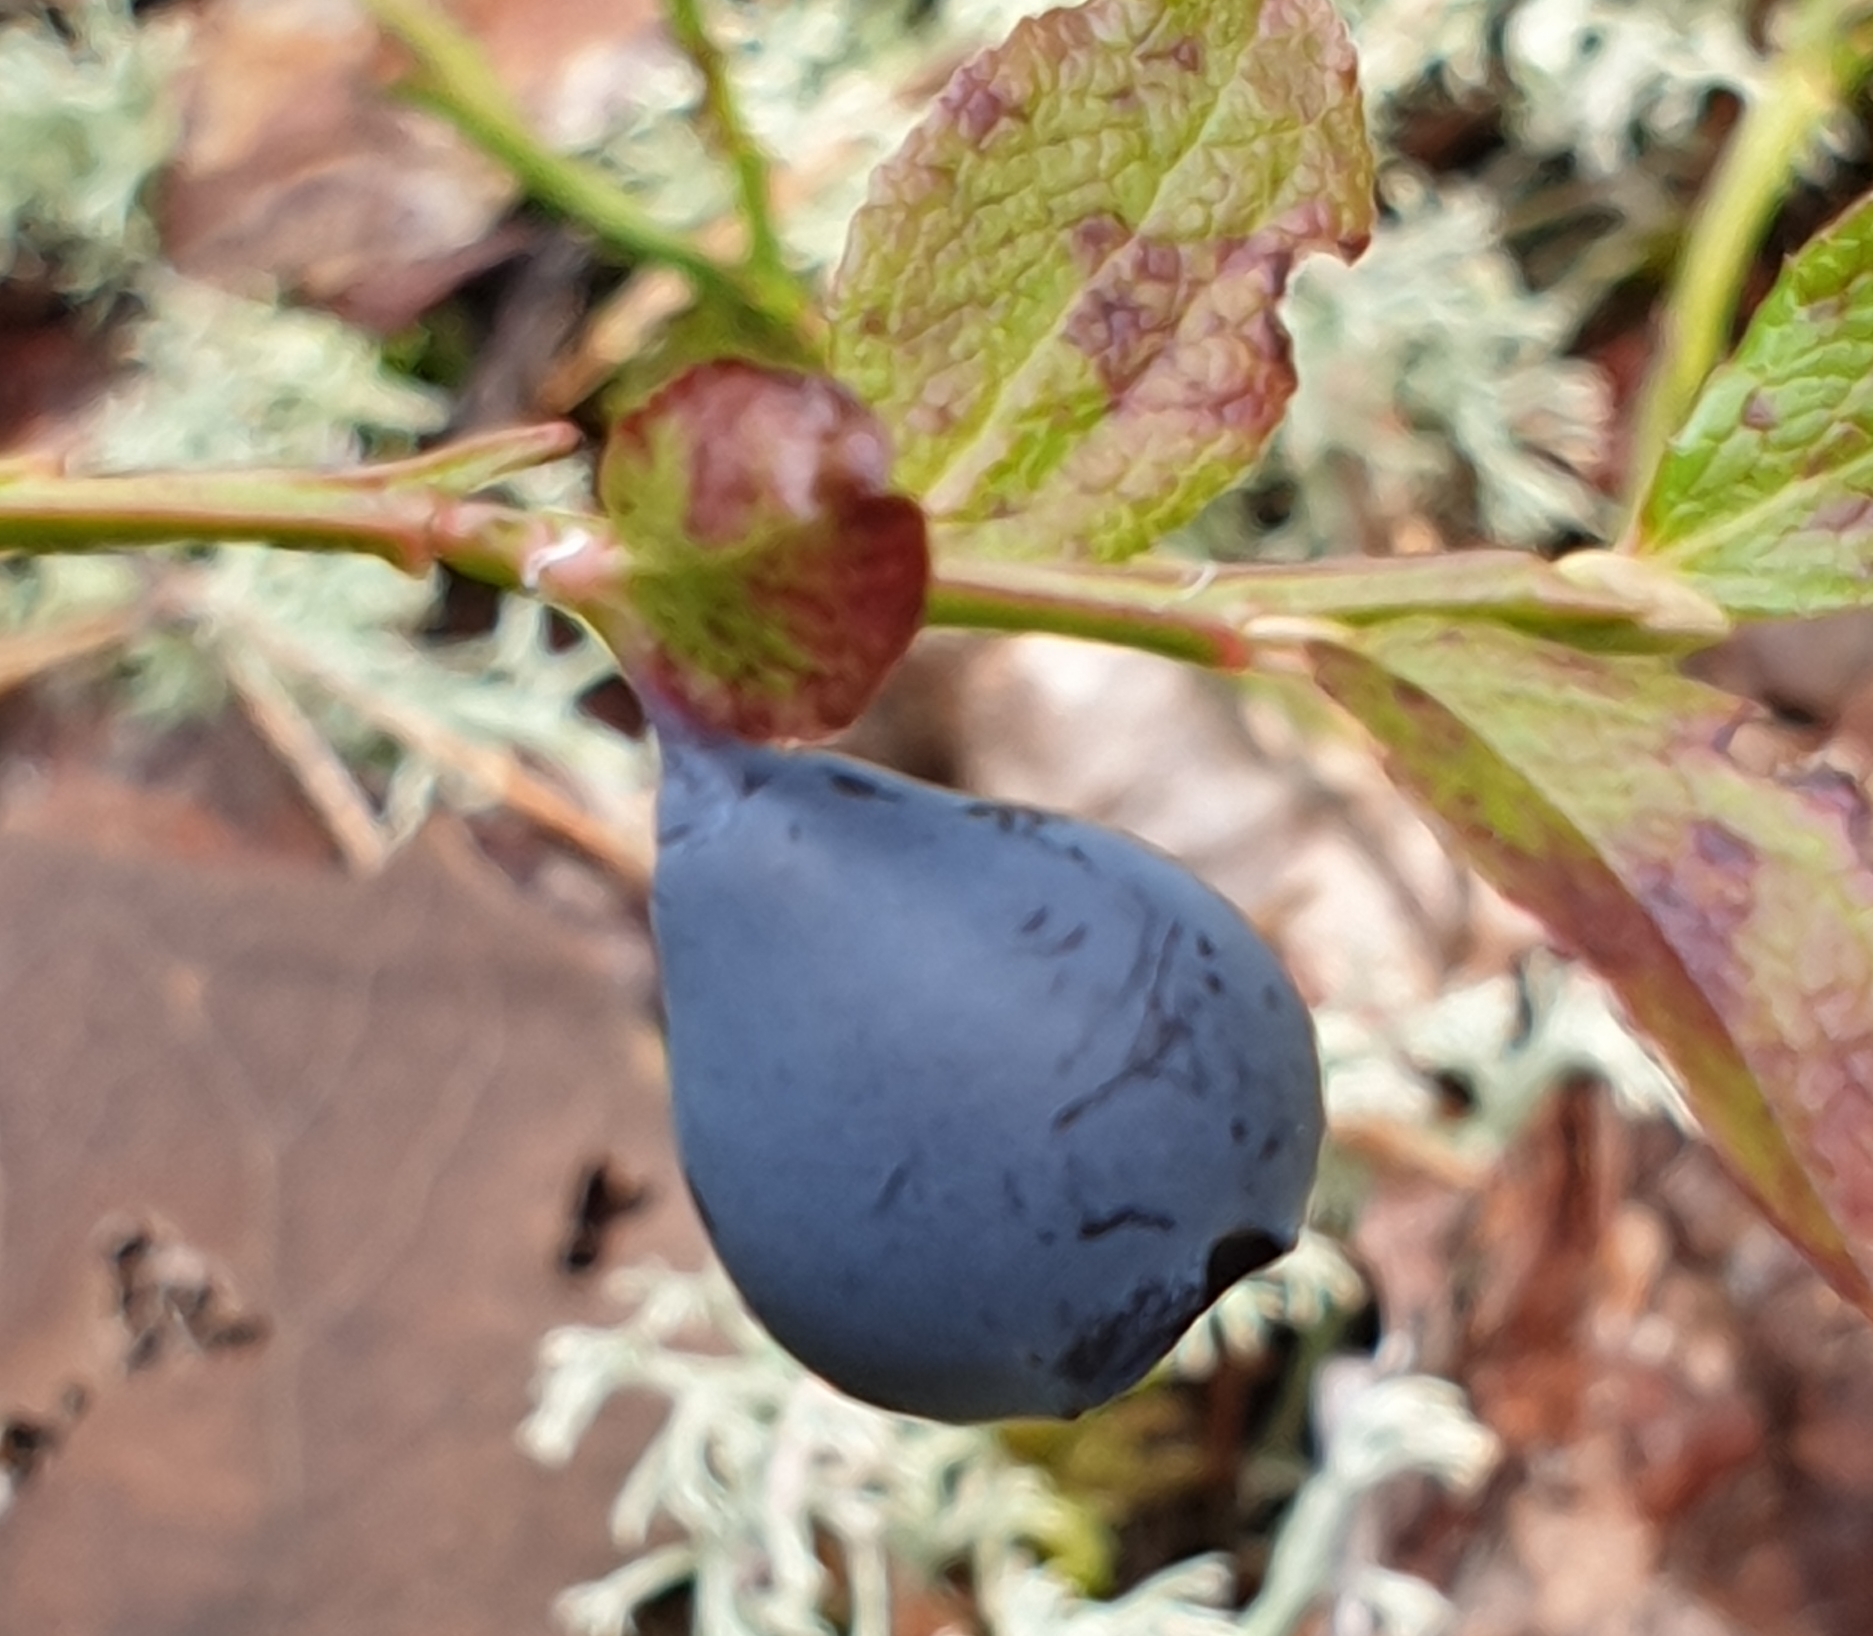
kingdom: Plantae
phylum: Tracheophyta
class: Magnoliopsida
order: Ericales
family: Ericaceae
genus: Vaccinium
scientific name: Vaccinium myrtillus
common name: Bilberry
